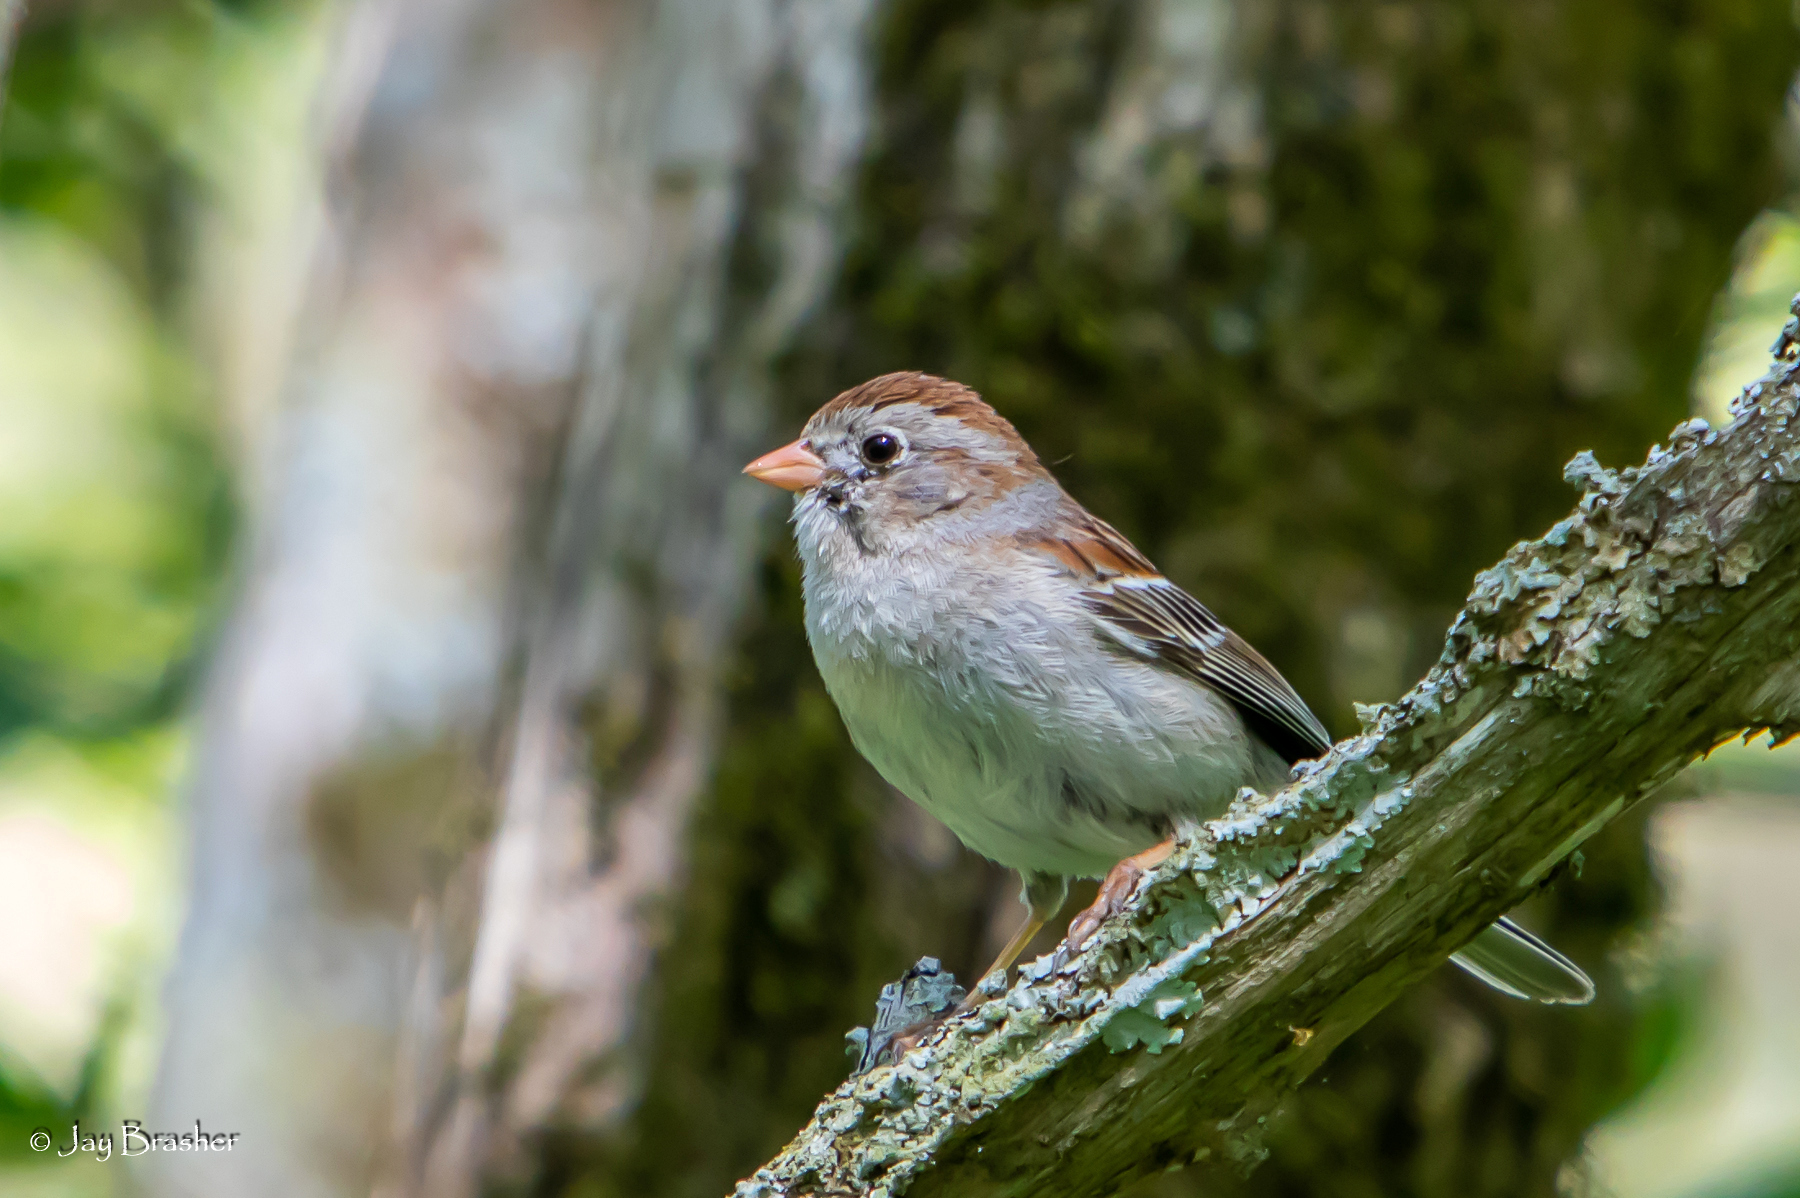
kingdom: Animalia
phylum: Chordata
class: Aves
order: Passeriformes
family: Passerellidae
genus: Spizella
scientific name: Spizella pusilla
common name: Field sparrow
